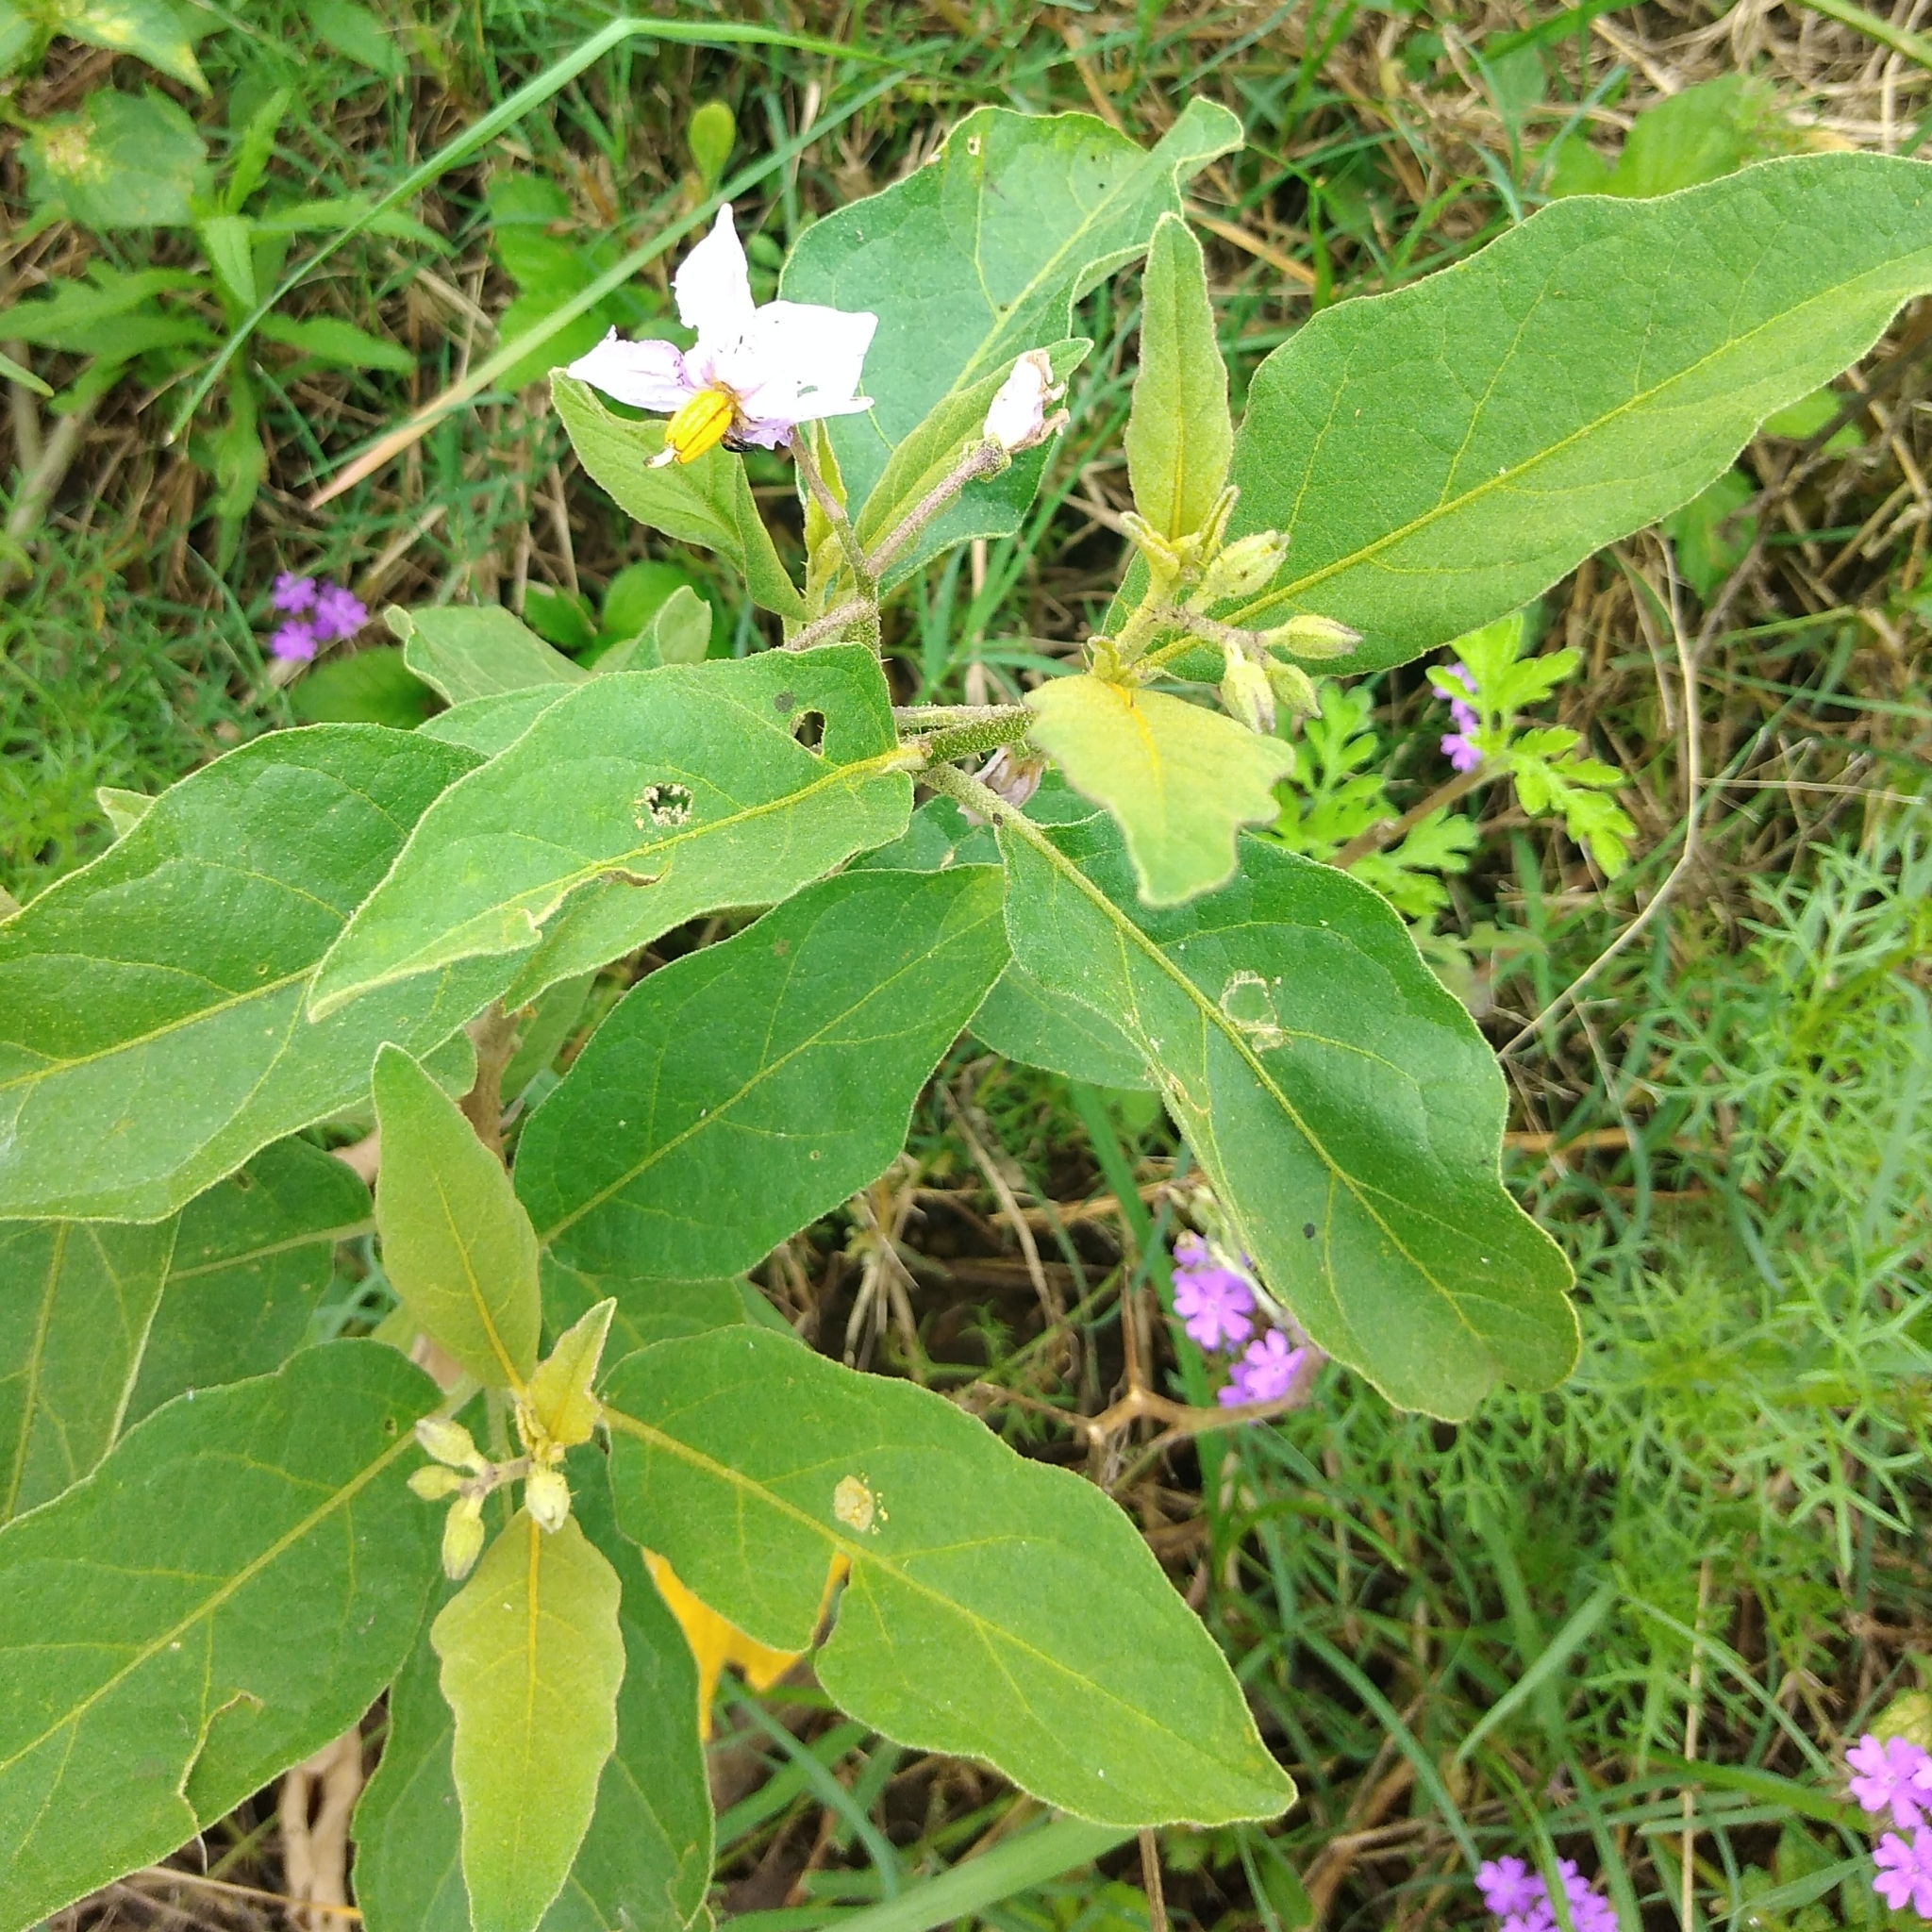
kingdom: Plantae
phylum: Tracheophyta
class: Magnoliopsida
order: Solanales
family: Solanaceae
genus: Solanum
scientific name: Solanum campylacanthum
